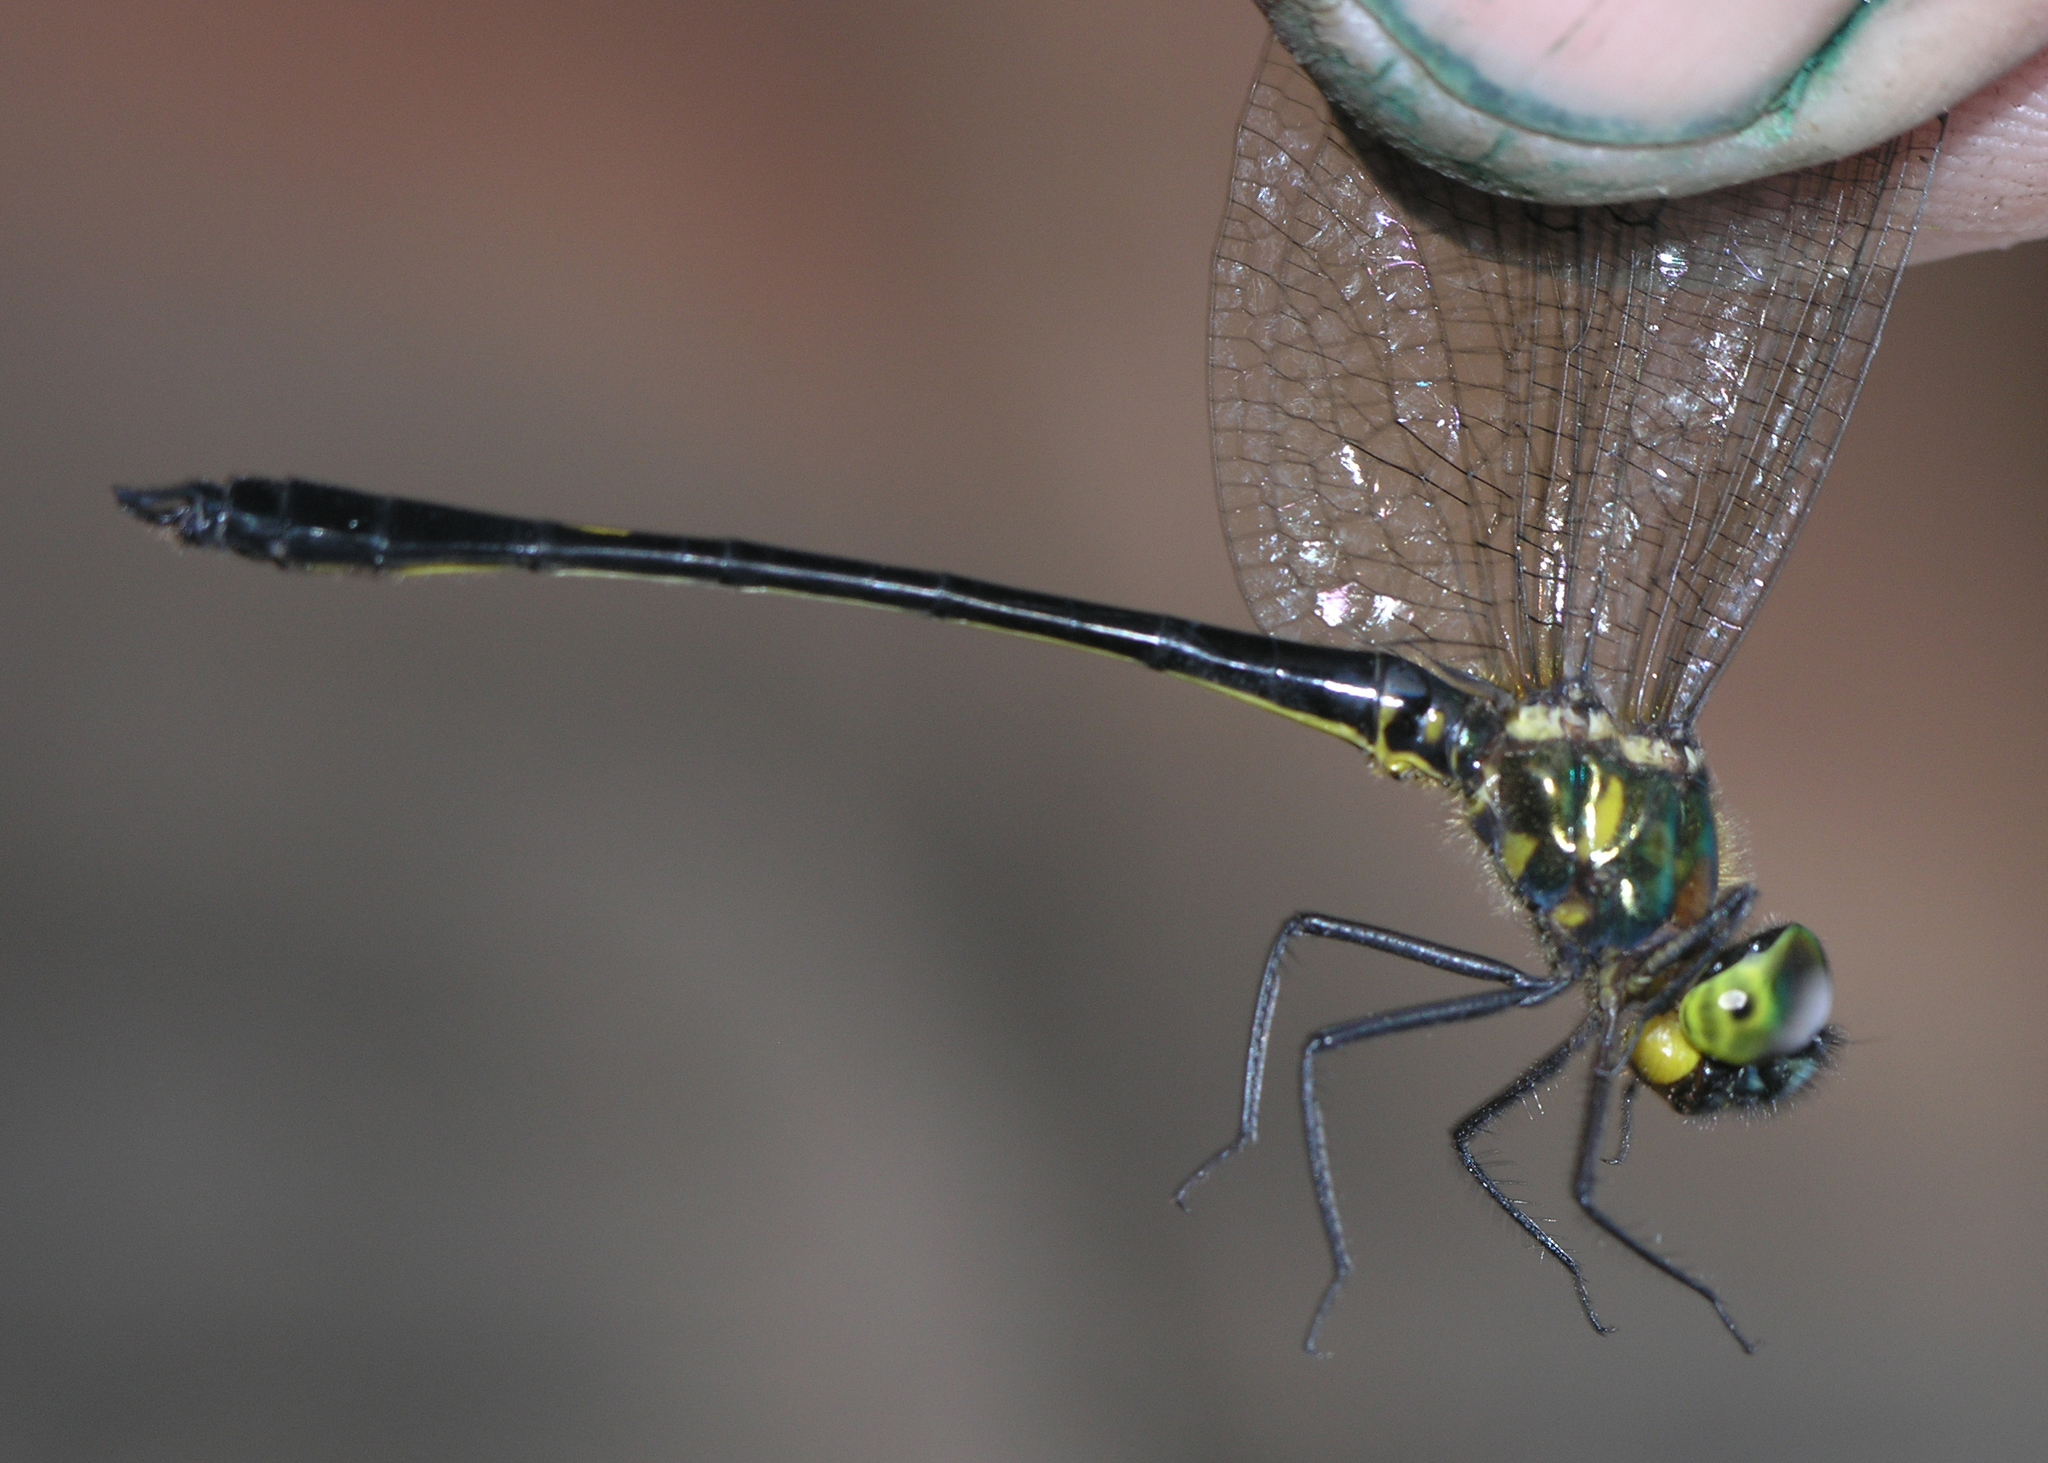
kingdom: Animalia
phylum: Arthropoda
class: Insecta
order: Odonata
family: Corduliidae
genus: Macromidia
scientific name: Macromidia genialis
